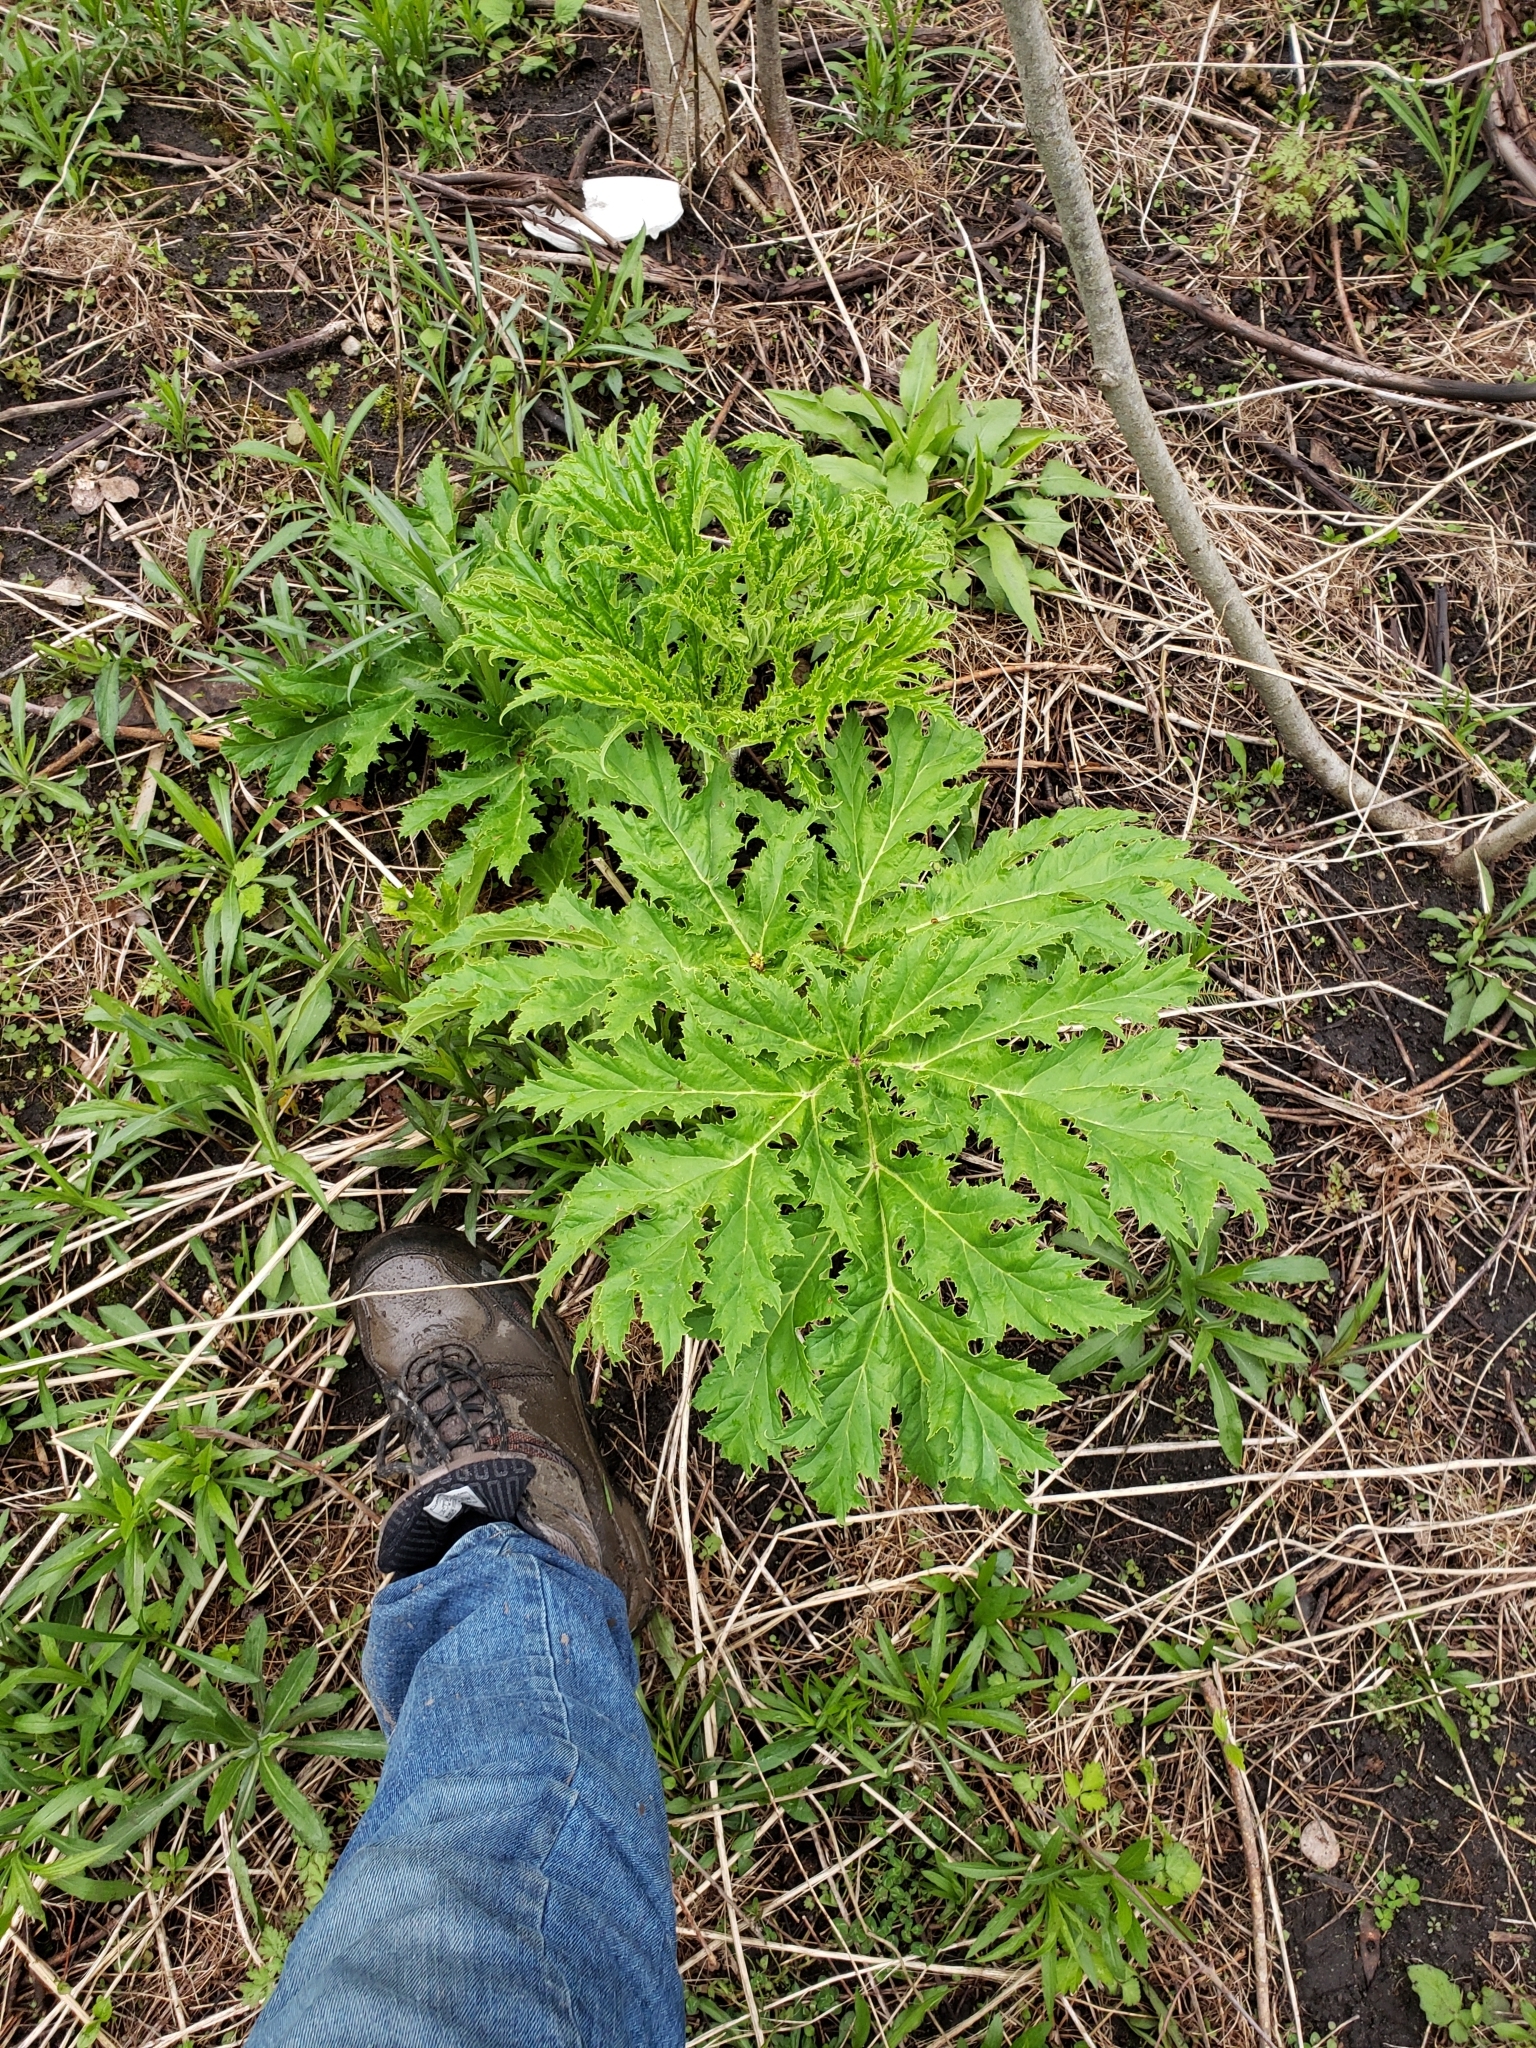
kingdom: Plantae
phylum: Tracheophyta
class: Magnoliopsida
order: Apiales
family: Apiaceae
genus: Heracleum
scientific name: Heracleum mantegazzianum
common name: Giant hogweed
